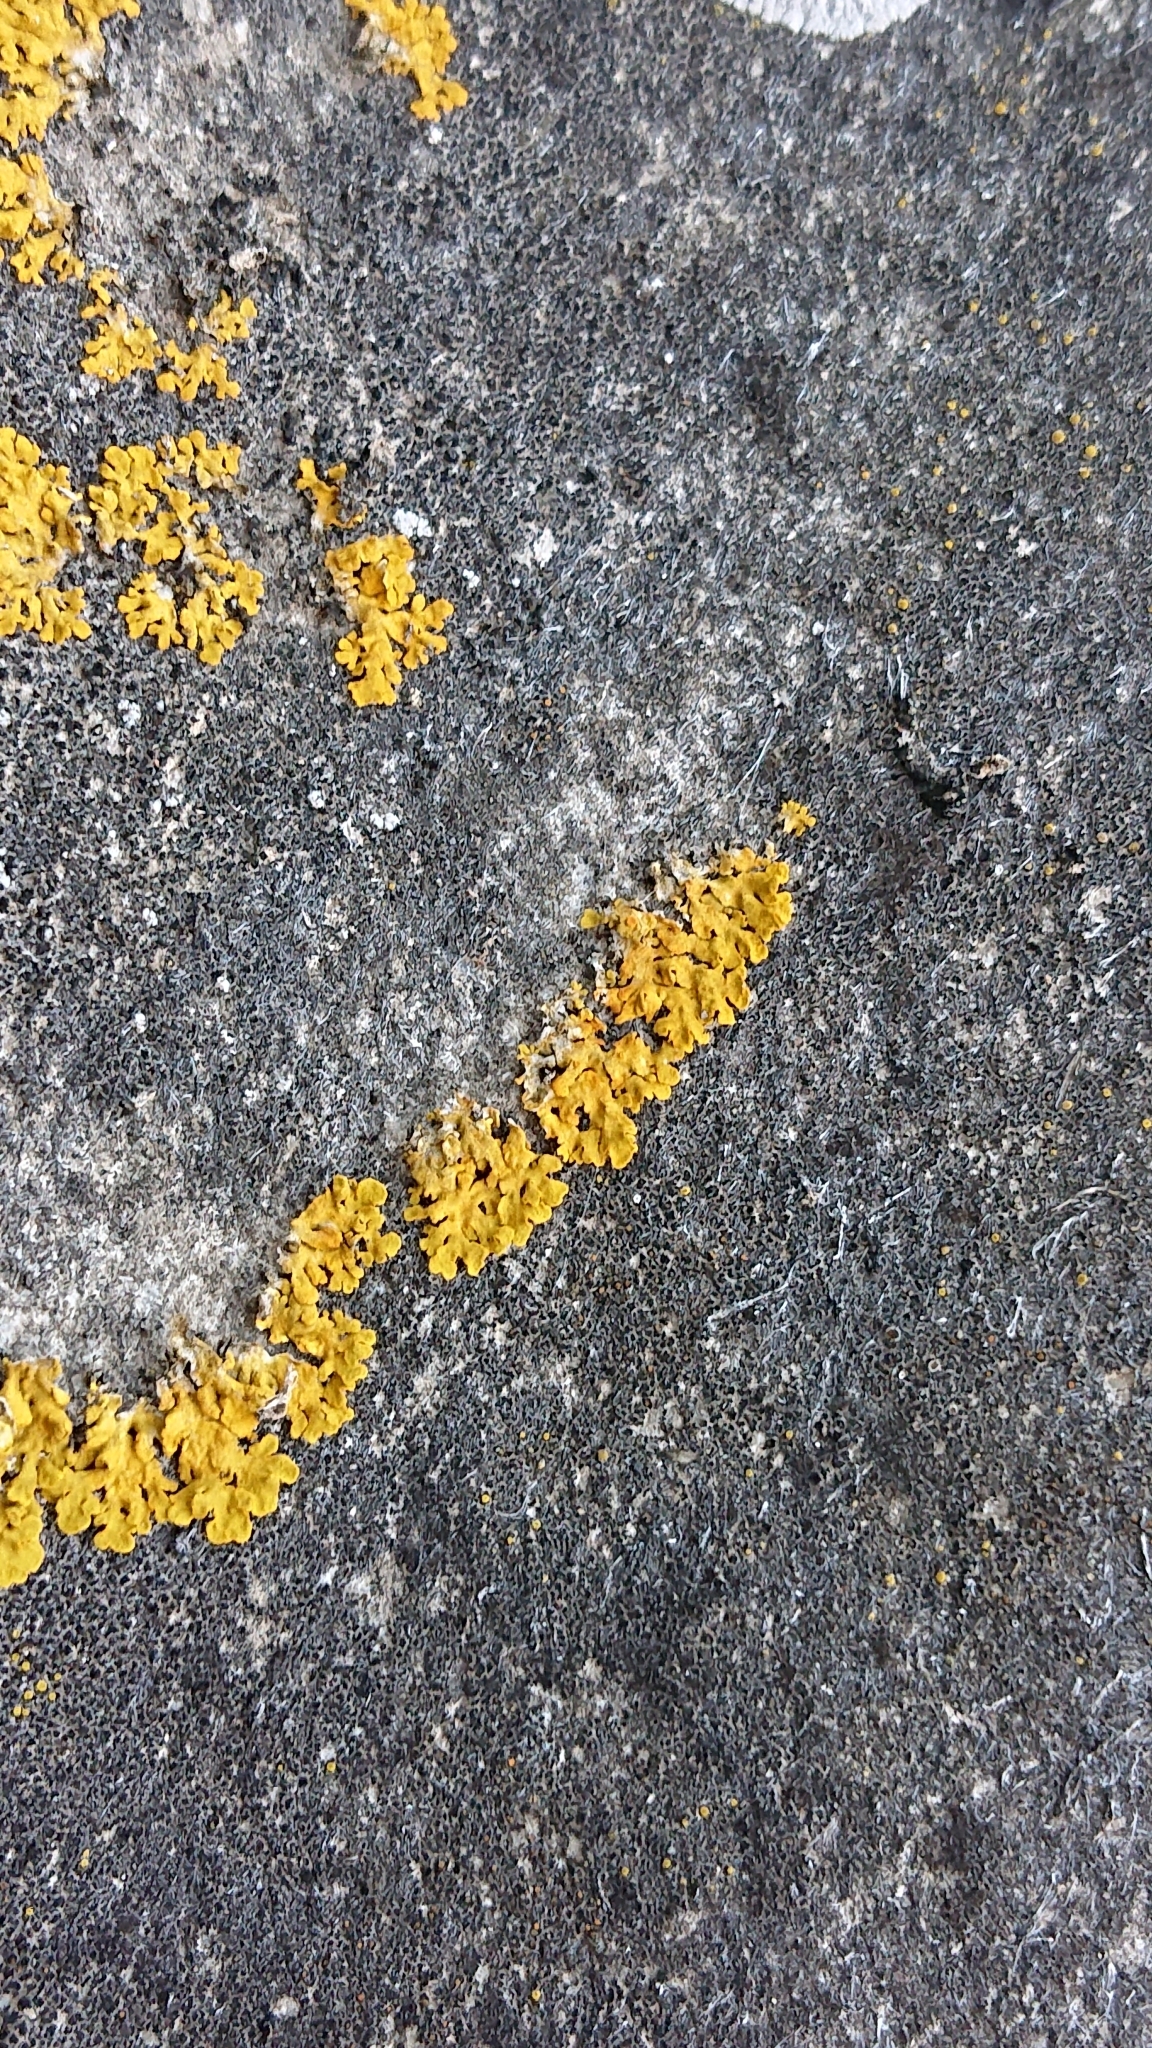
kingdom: Fungi
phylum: Ascomycota
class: Lecanoromycetes
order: Teloschistales
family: Teloschistaceae
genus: Xanthoria
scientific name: Xanthoria parietina
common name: Common orange lichen
